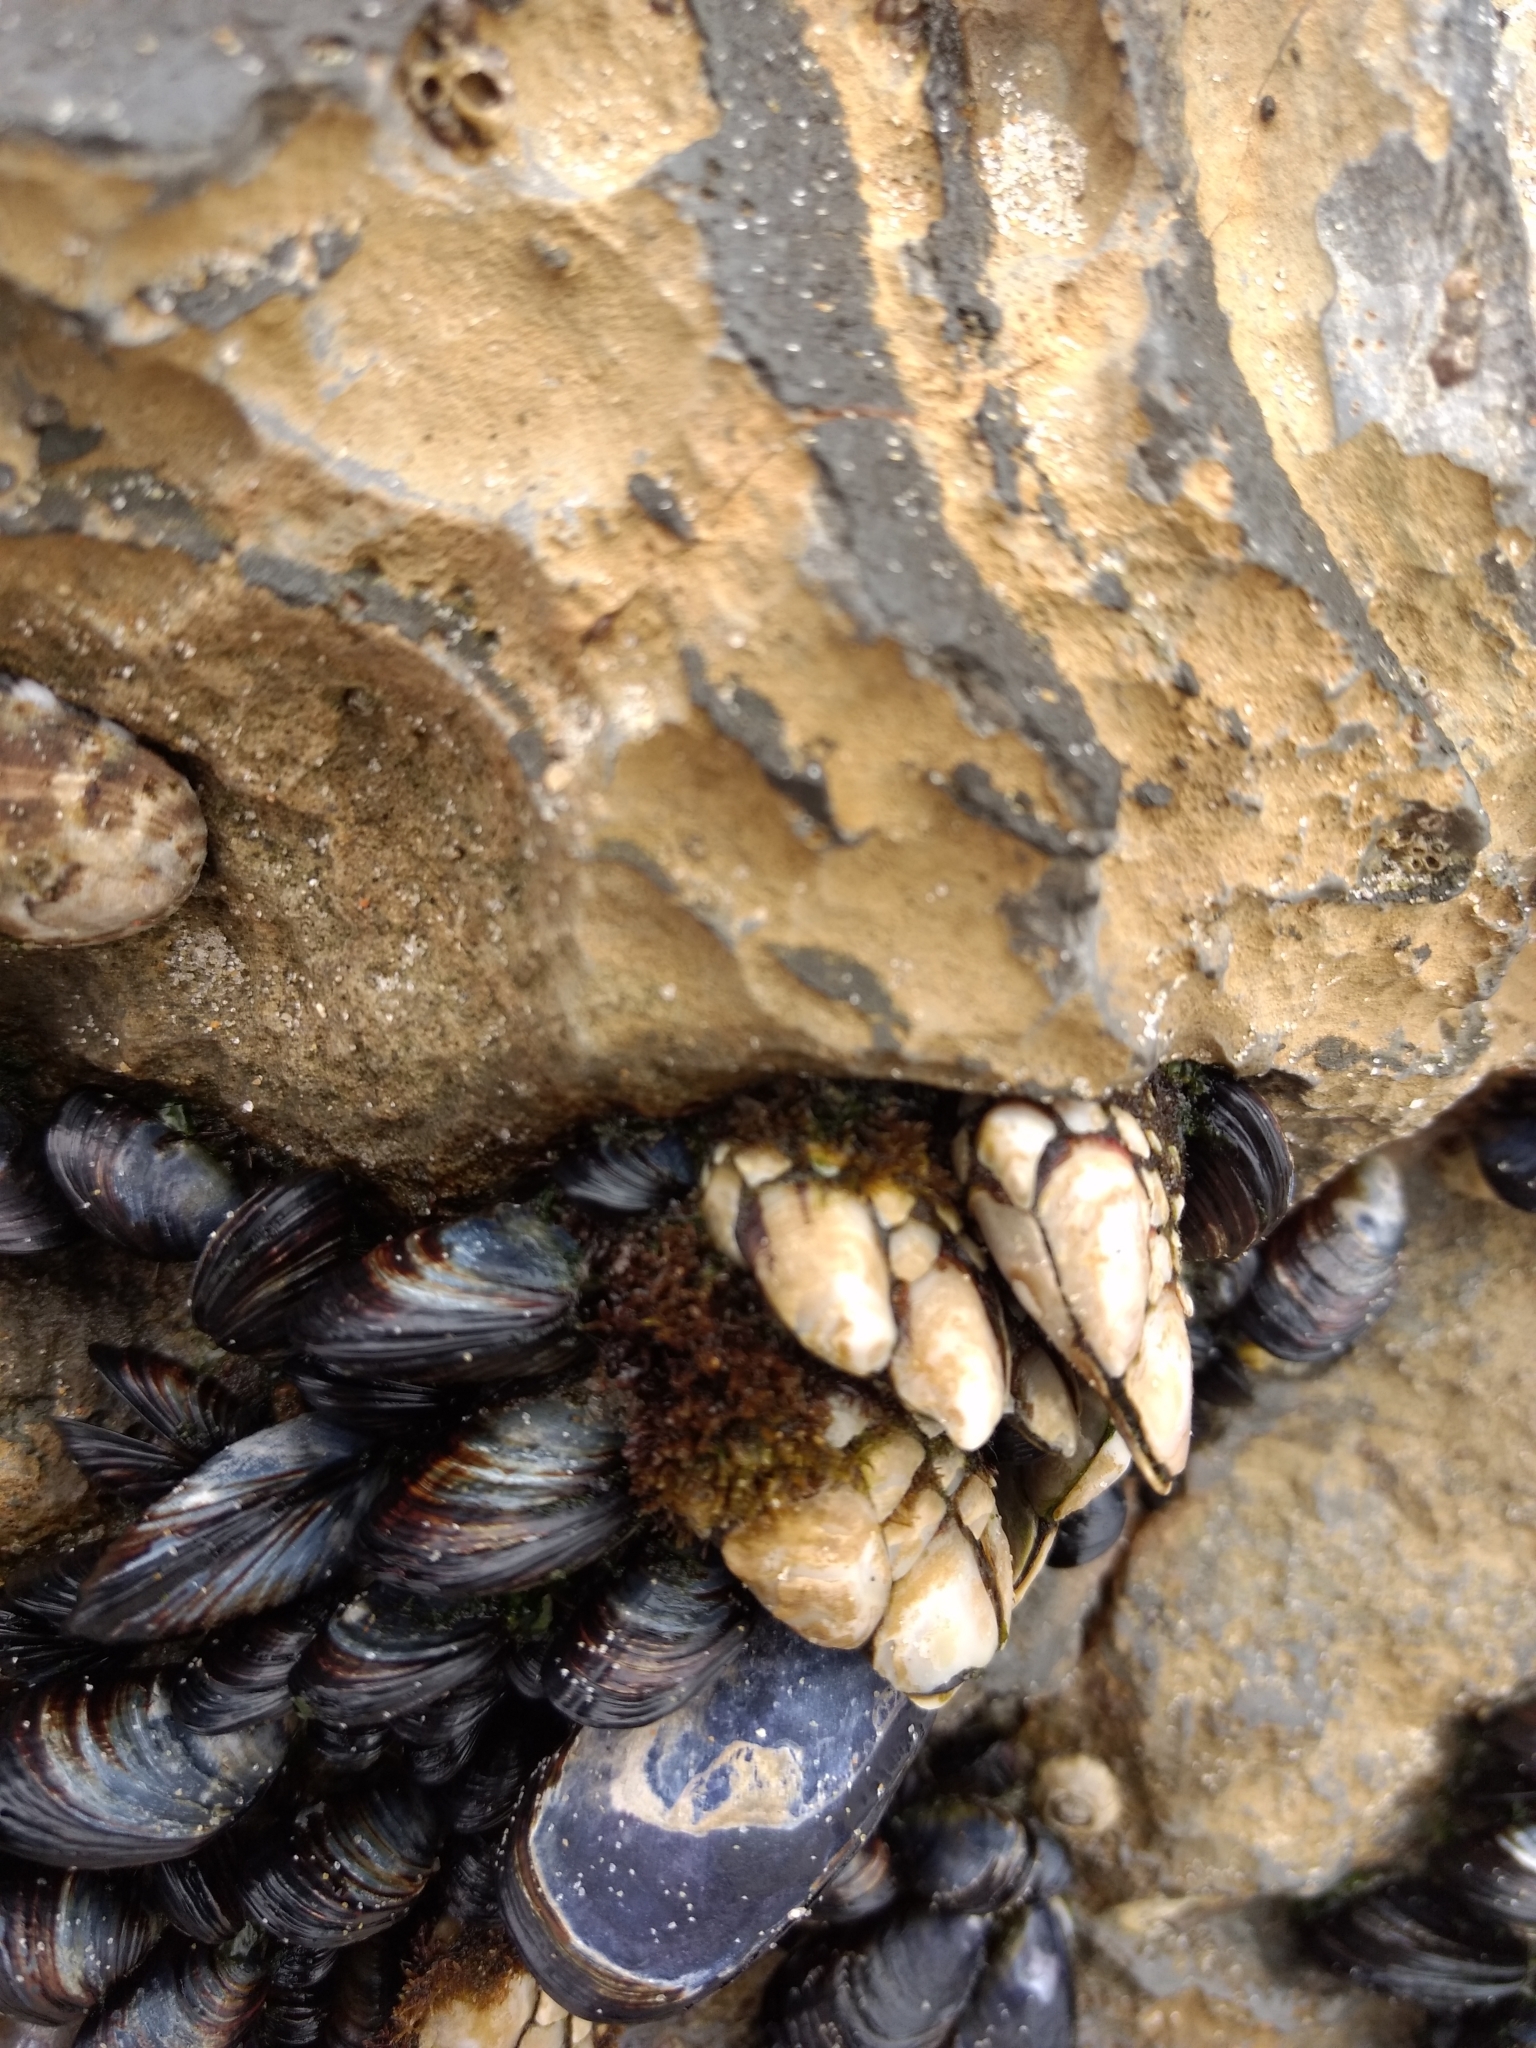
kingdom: Animalia
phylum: Arthropoda
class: Maxillopoda
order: Pedunculata
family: Pollicipedidae
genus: Pollicipes
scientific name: Pollicipes polymerus
